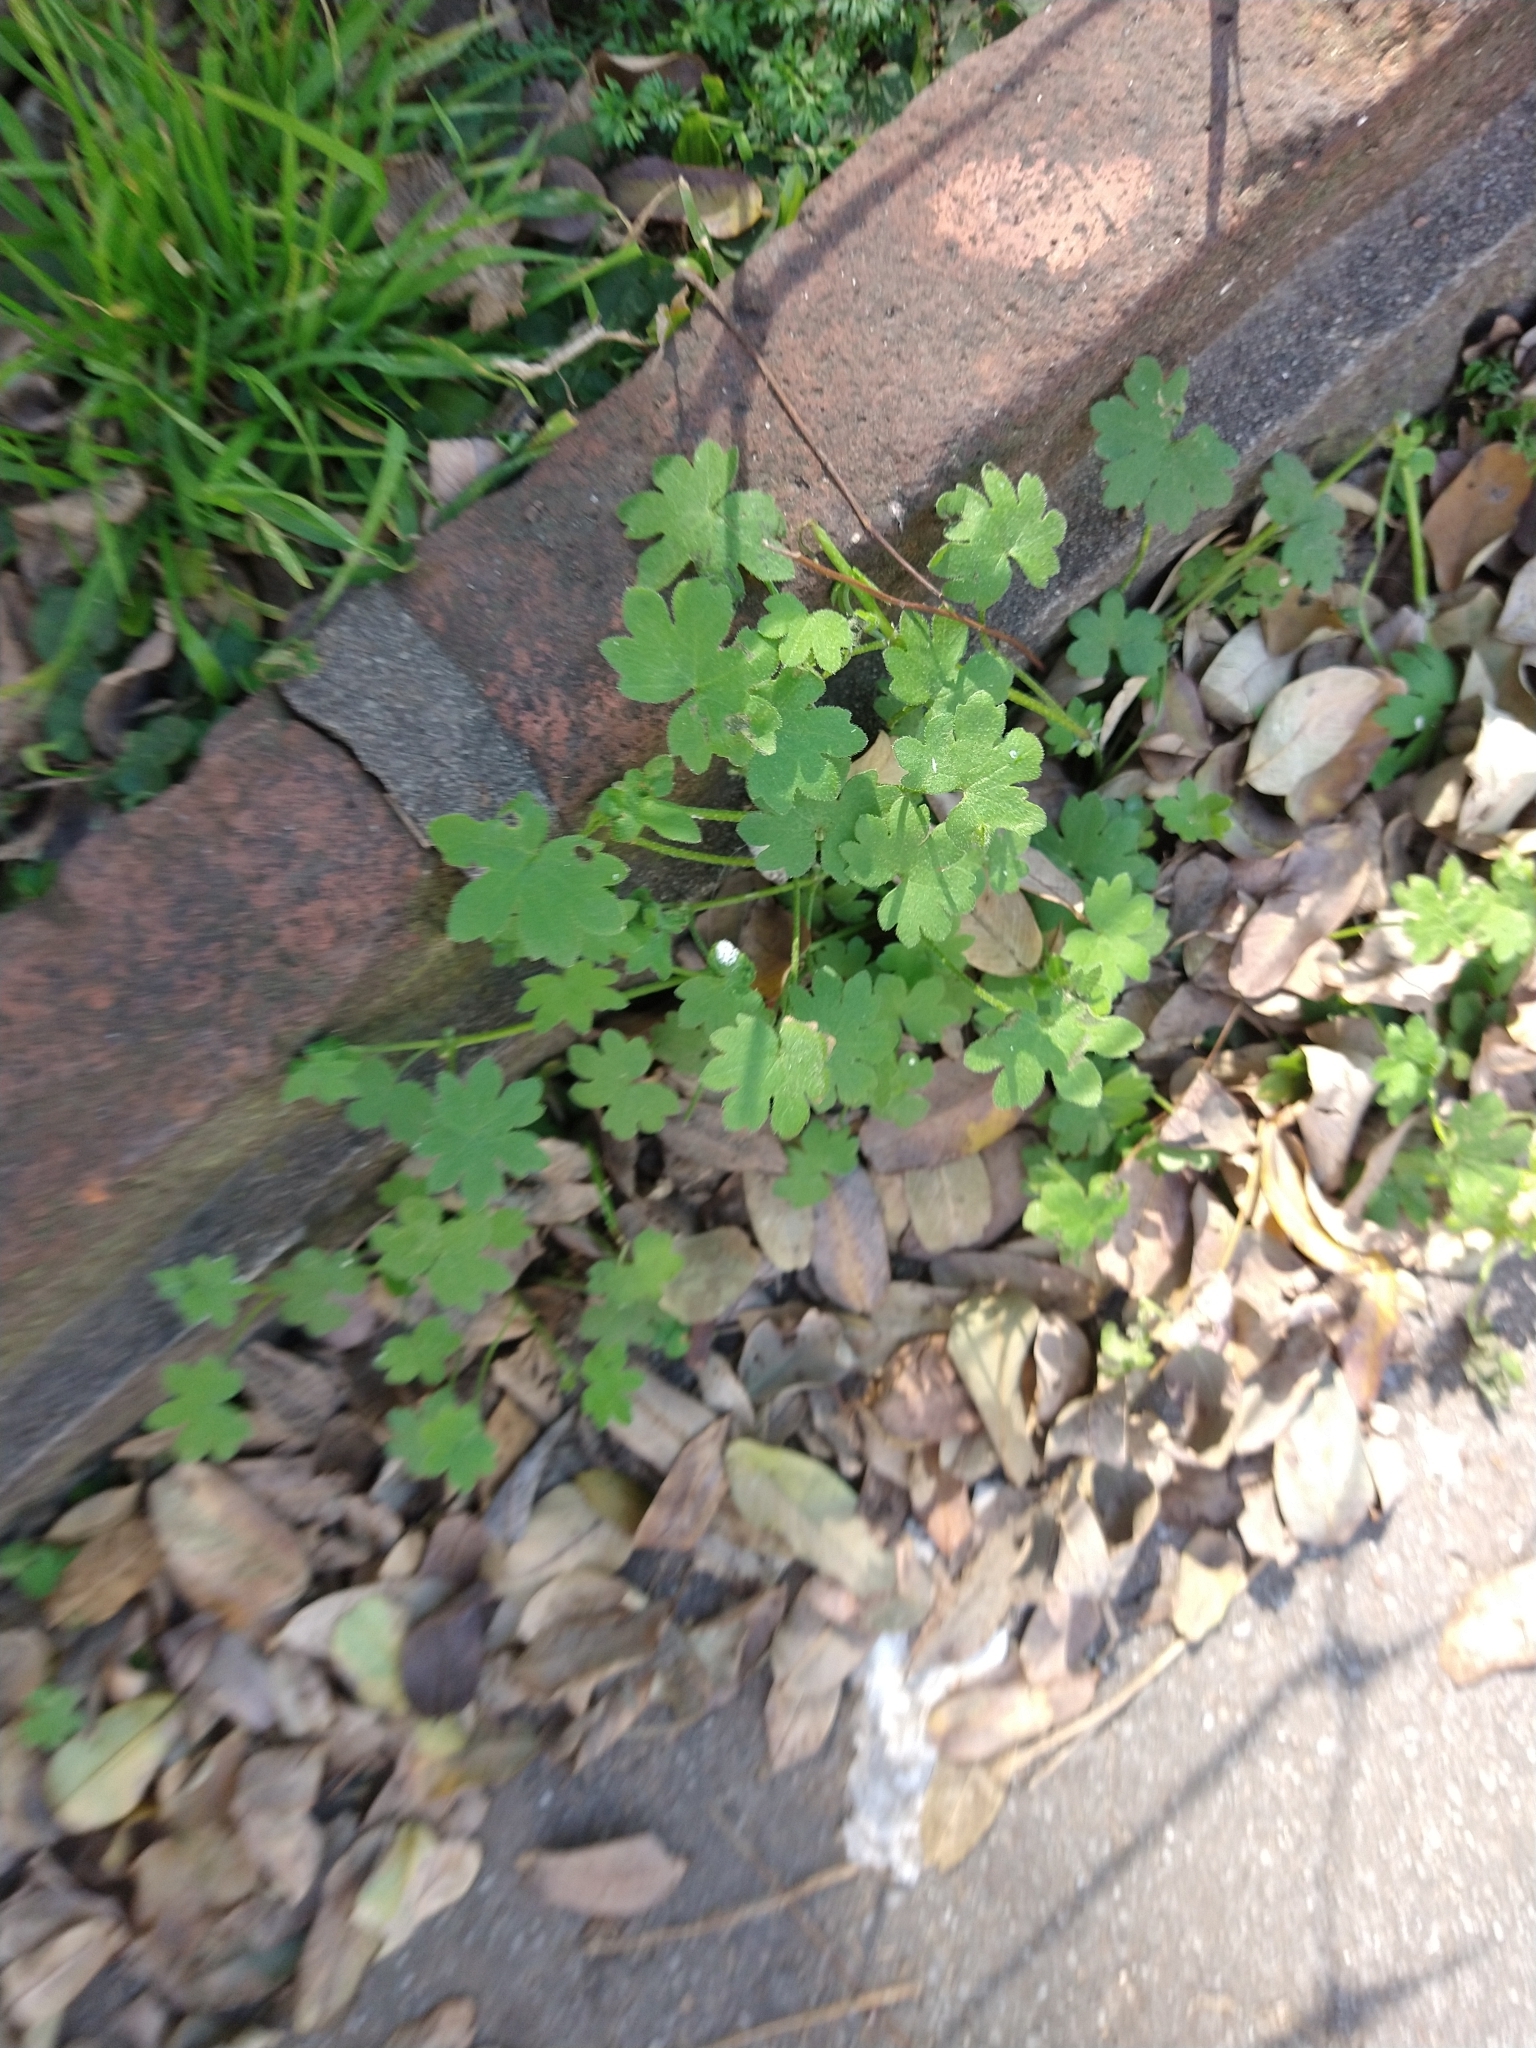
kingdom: Plantae
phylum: Tracheophyta
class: Magnoliopsida
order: Apiales
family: Apiaceae
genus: Bowlesia
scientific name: Bowlesia incana
